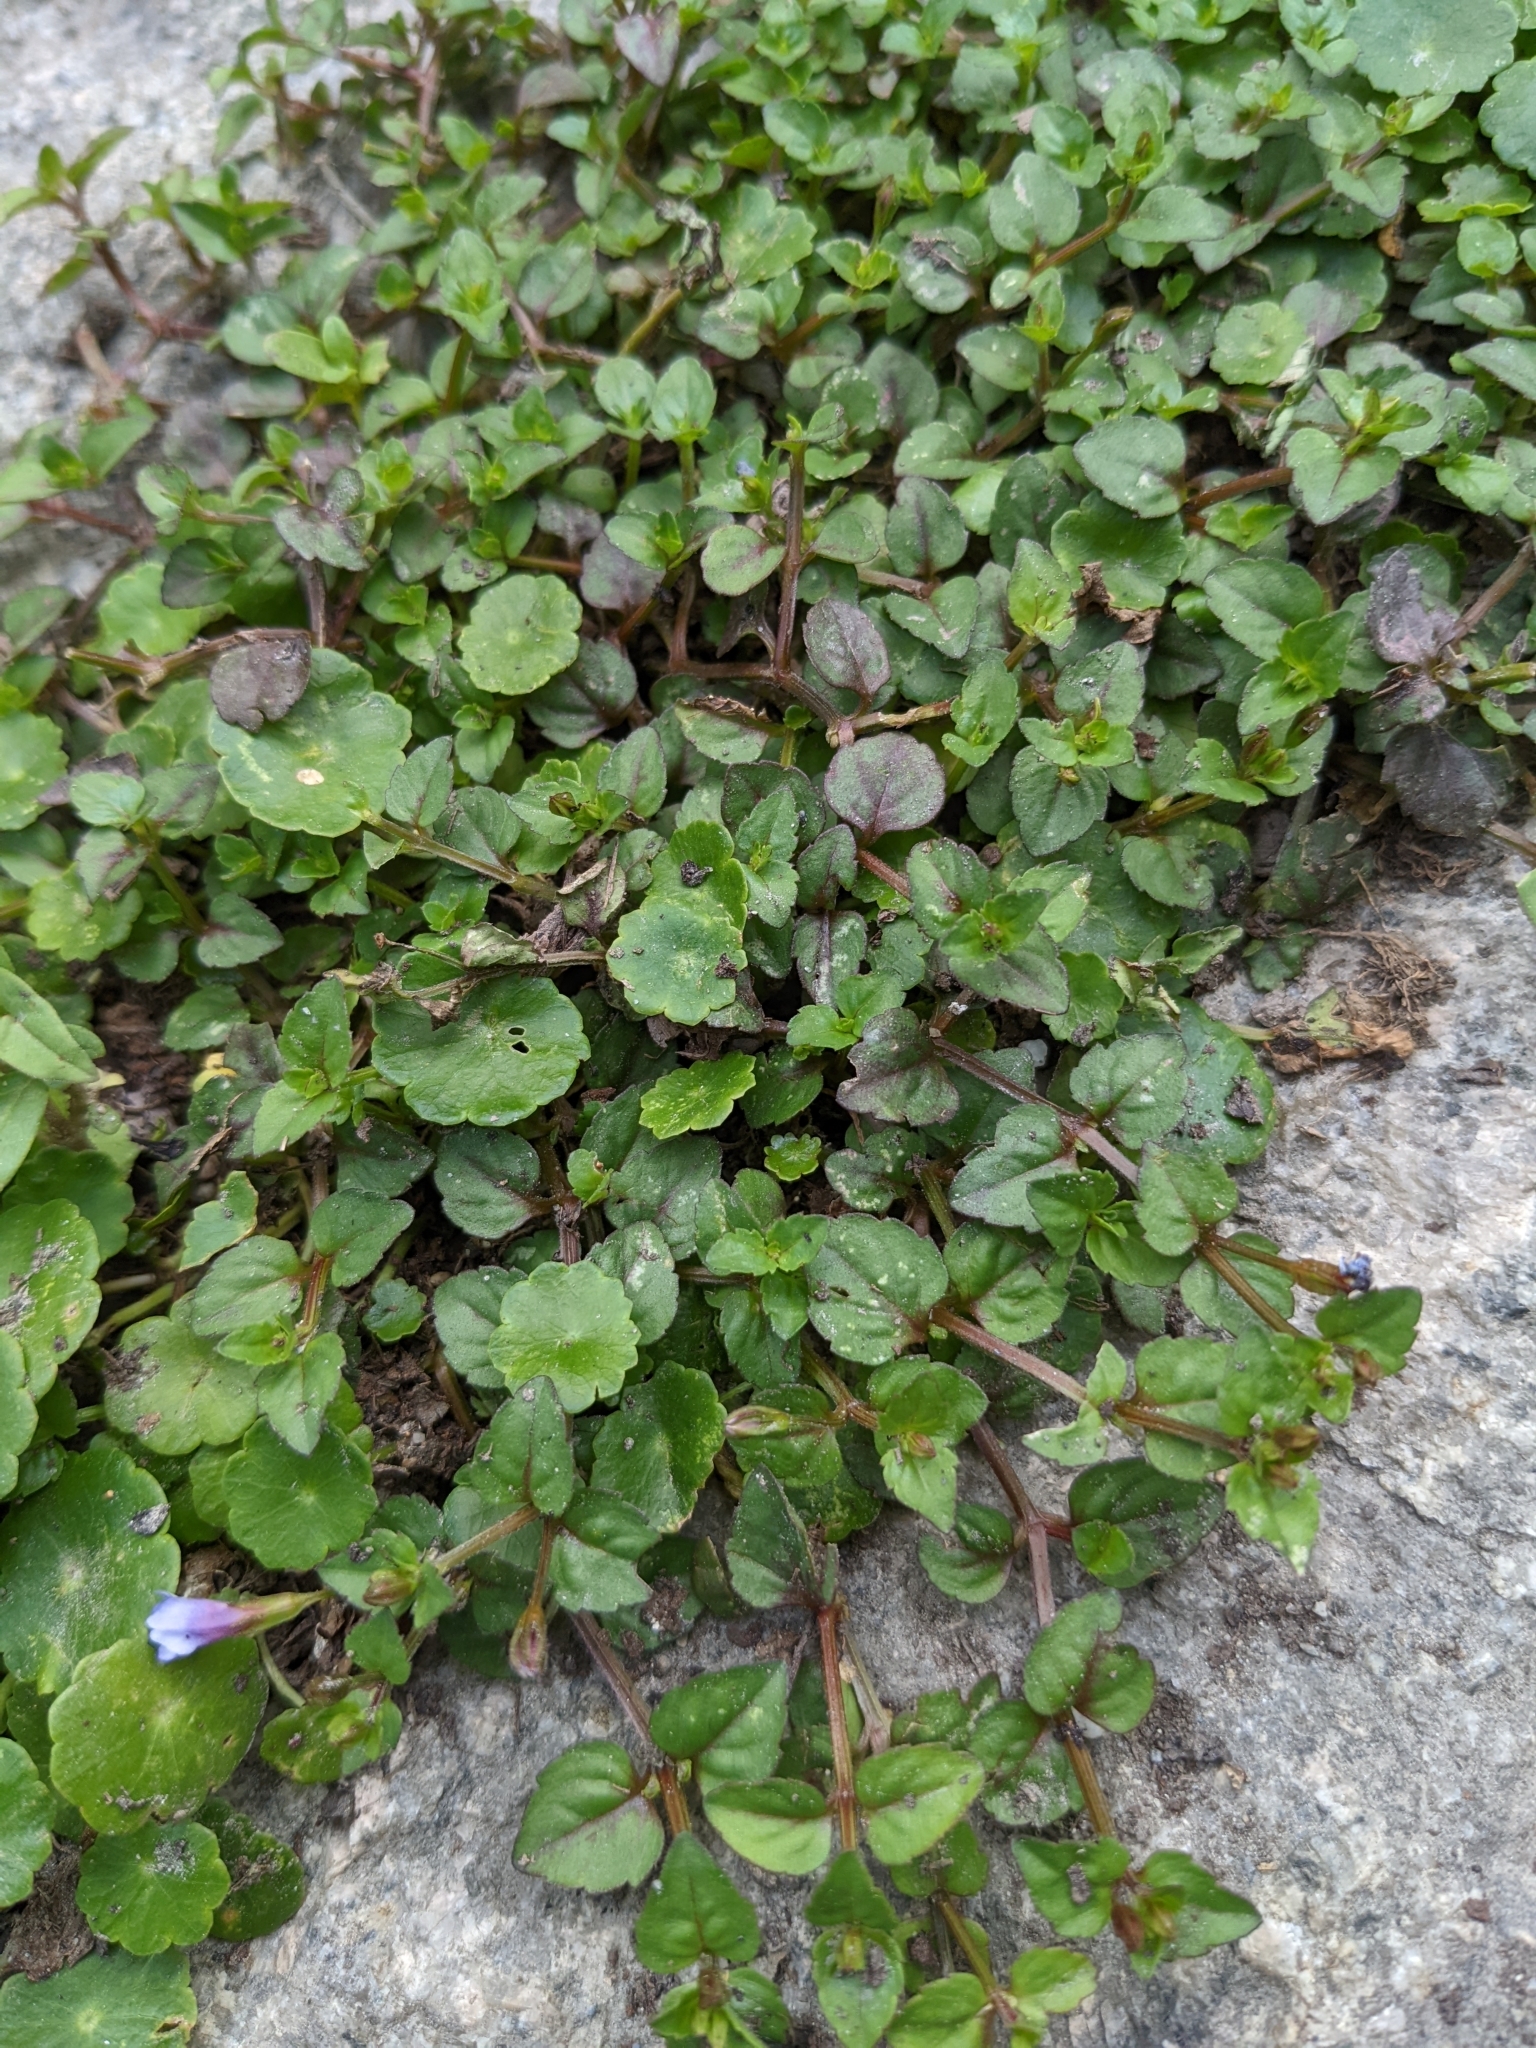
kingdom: Plantae
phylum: Tracheophyta
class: Magnoliopsida
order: Lamiales
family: Linderniaceae
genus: Torenia
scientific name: Torenia crustacea
